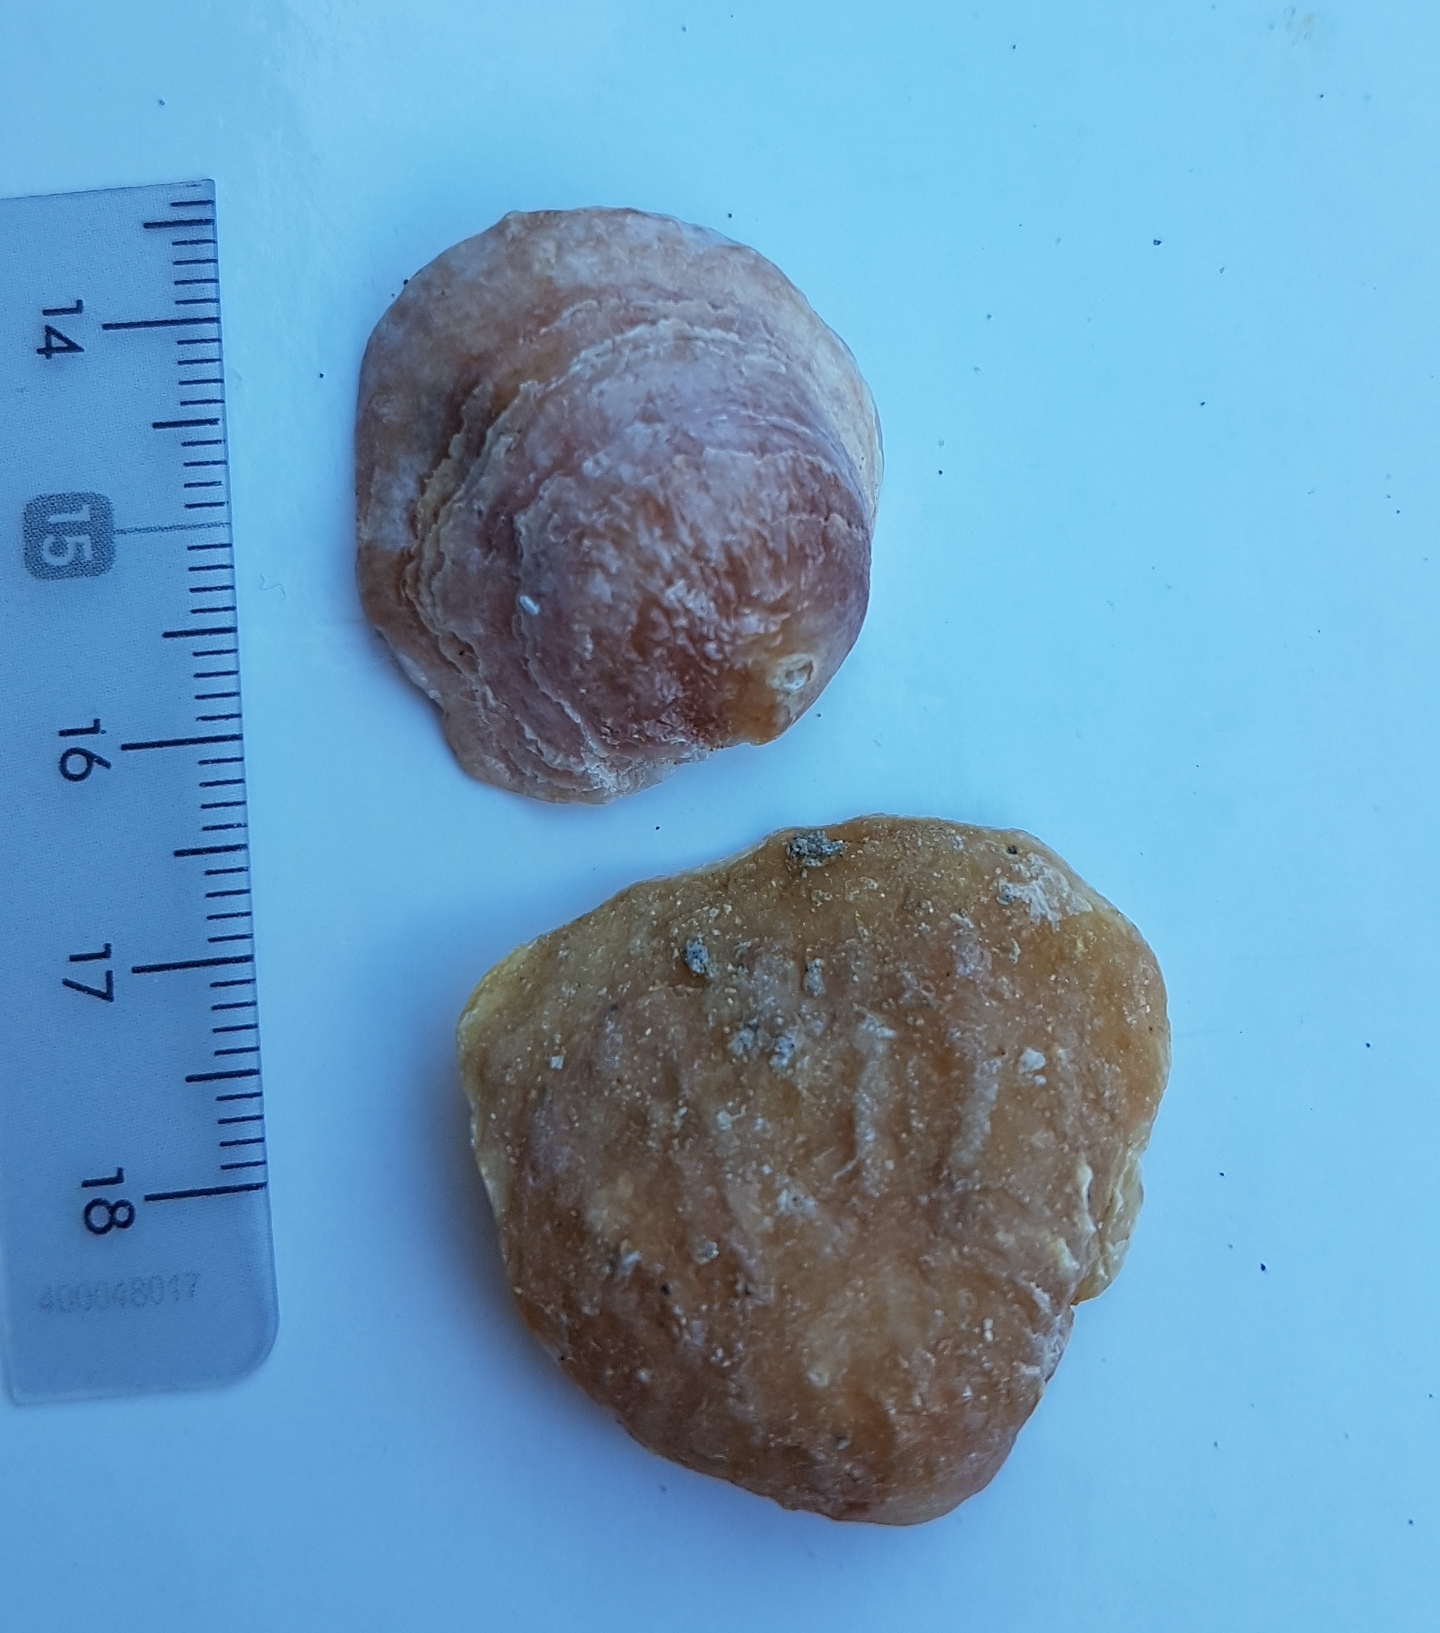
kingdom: Animalia
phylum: Mollusca
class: Bivalvia
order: Pectinida
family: Anomiidae
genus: Anomia
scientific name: Anomia ephippium
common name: Saddle oyster
